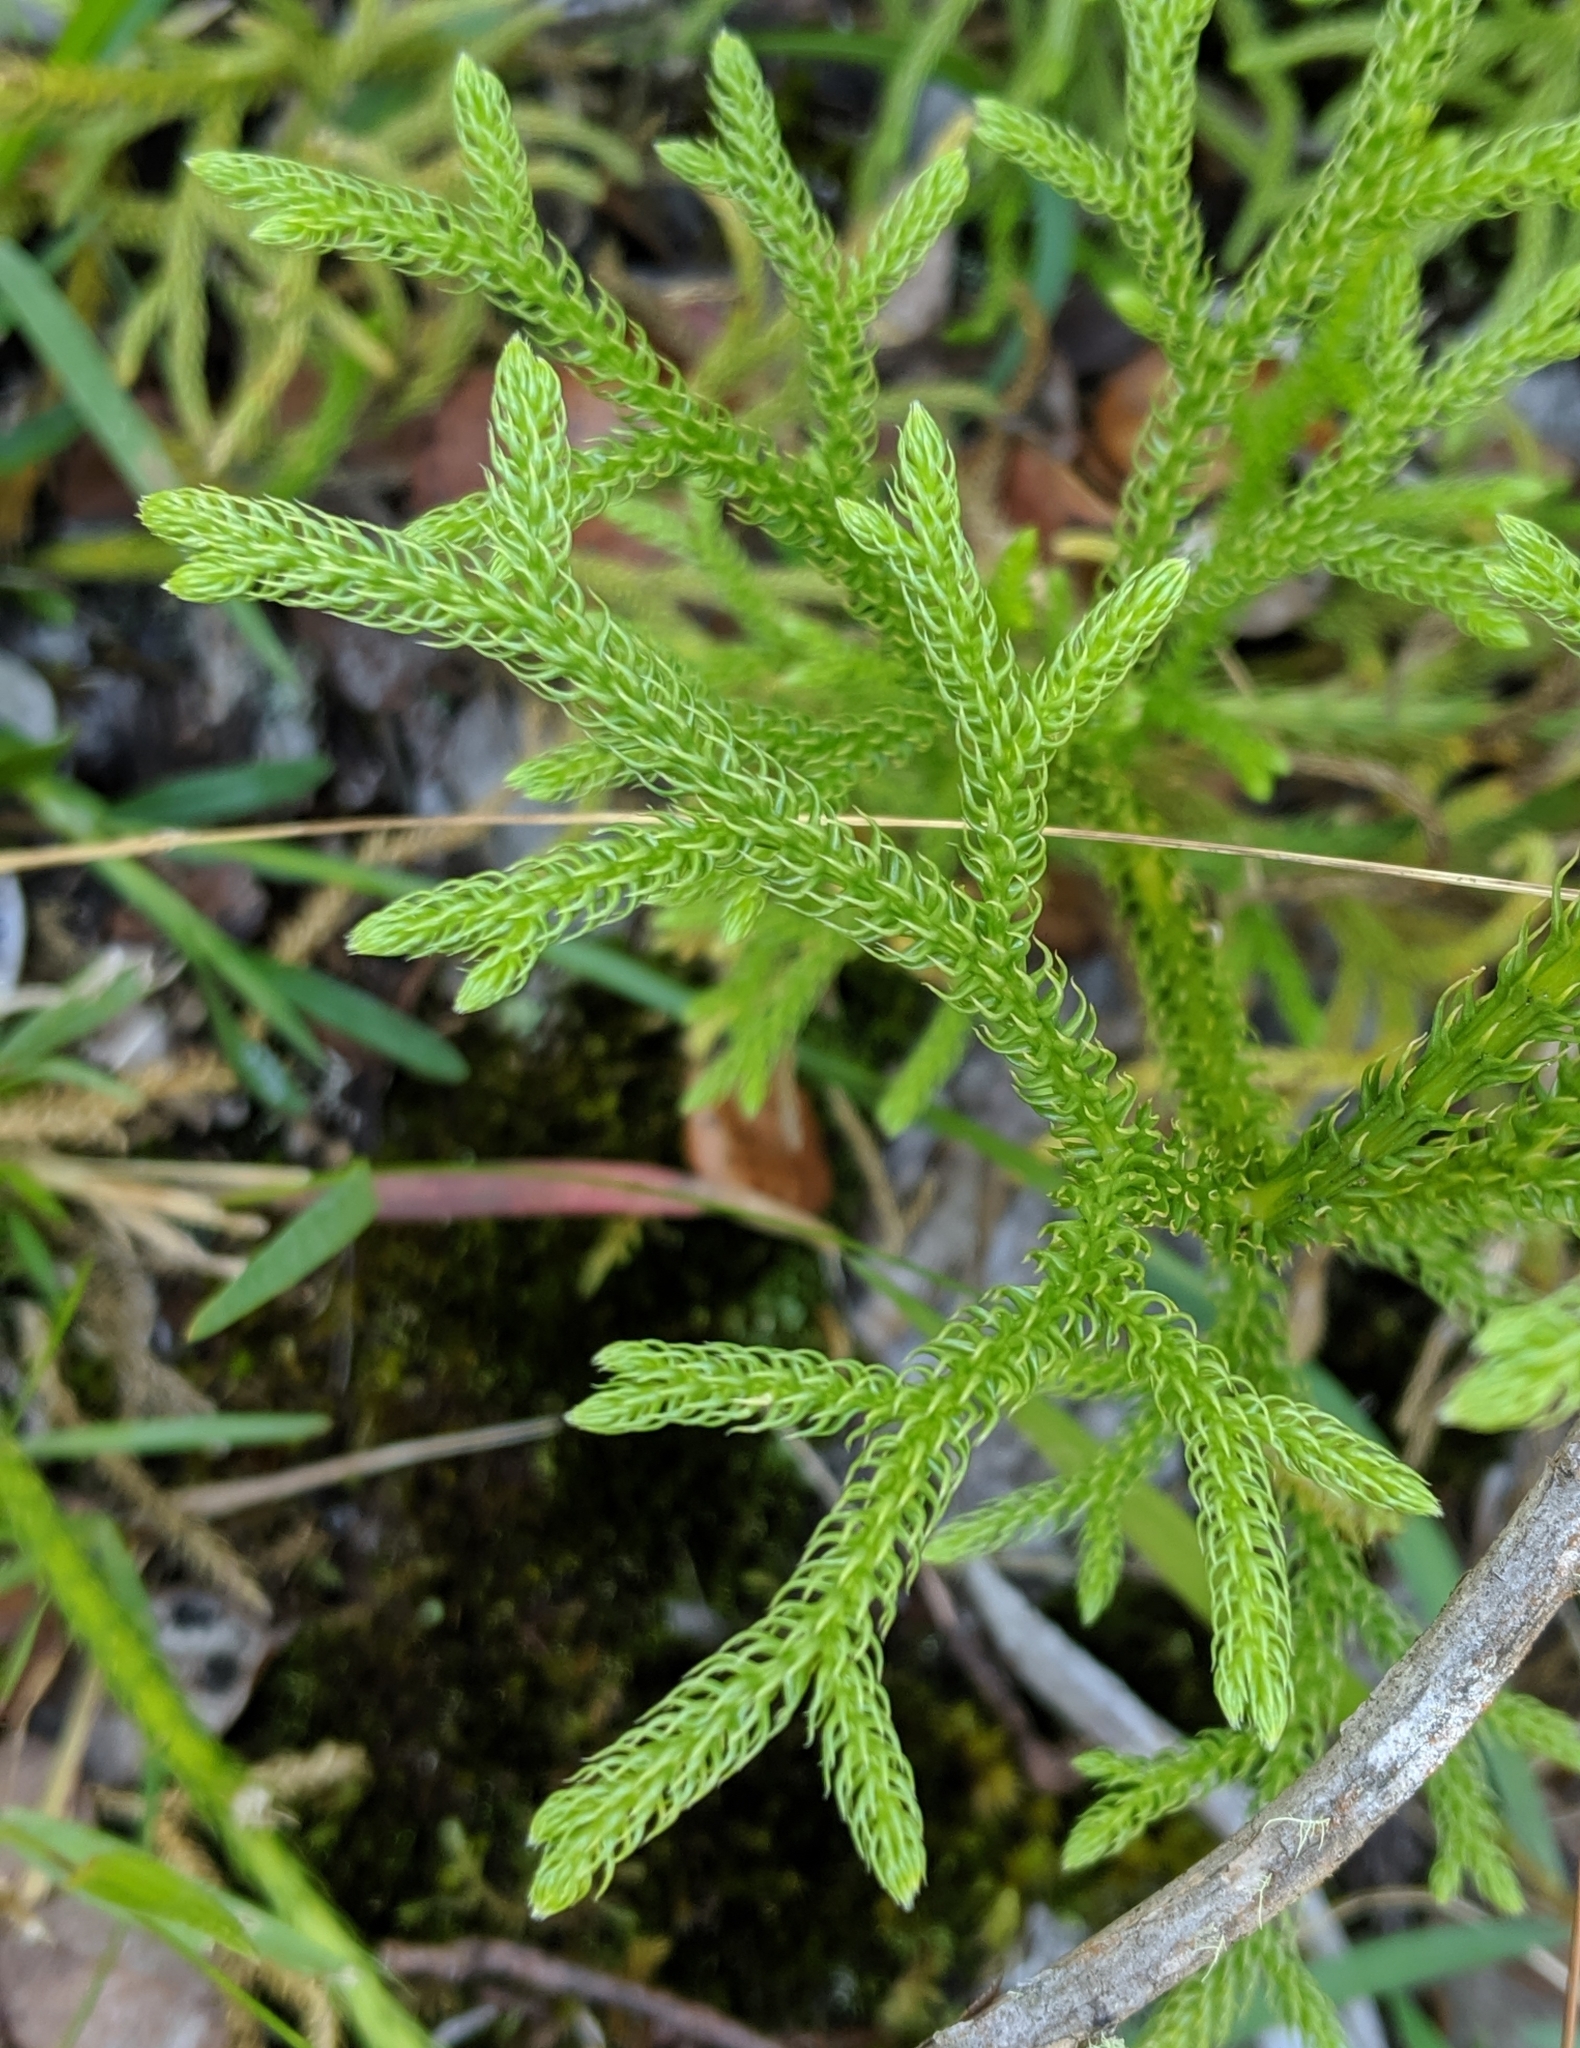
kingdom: Plantae
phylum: Tracheophyta
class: Lycopodiopsida
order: Lycopodiales
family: Lycopodiaceae
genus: Palhinhaea
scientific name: Palhinhaea cernua
